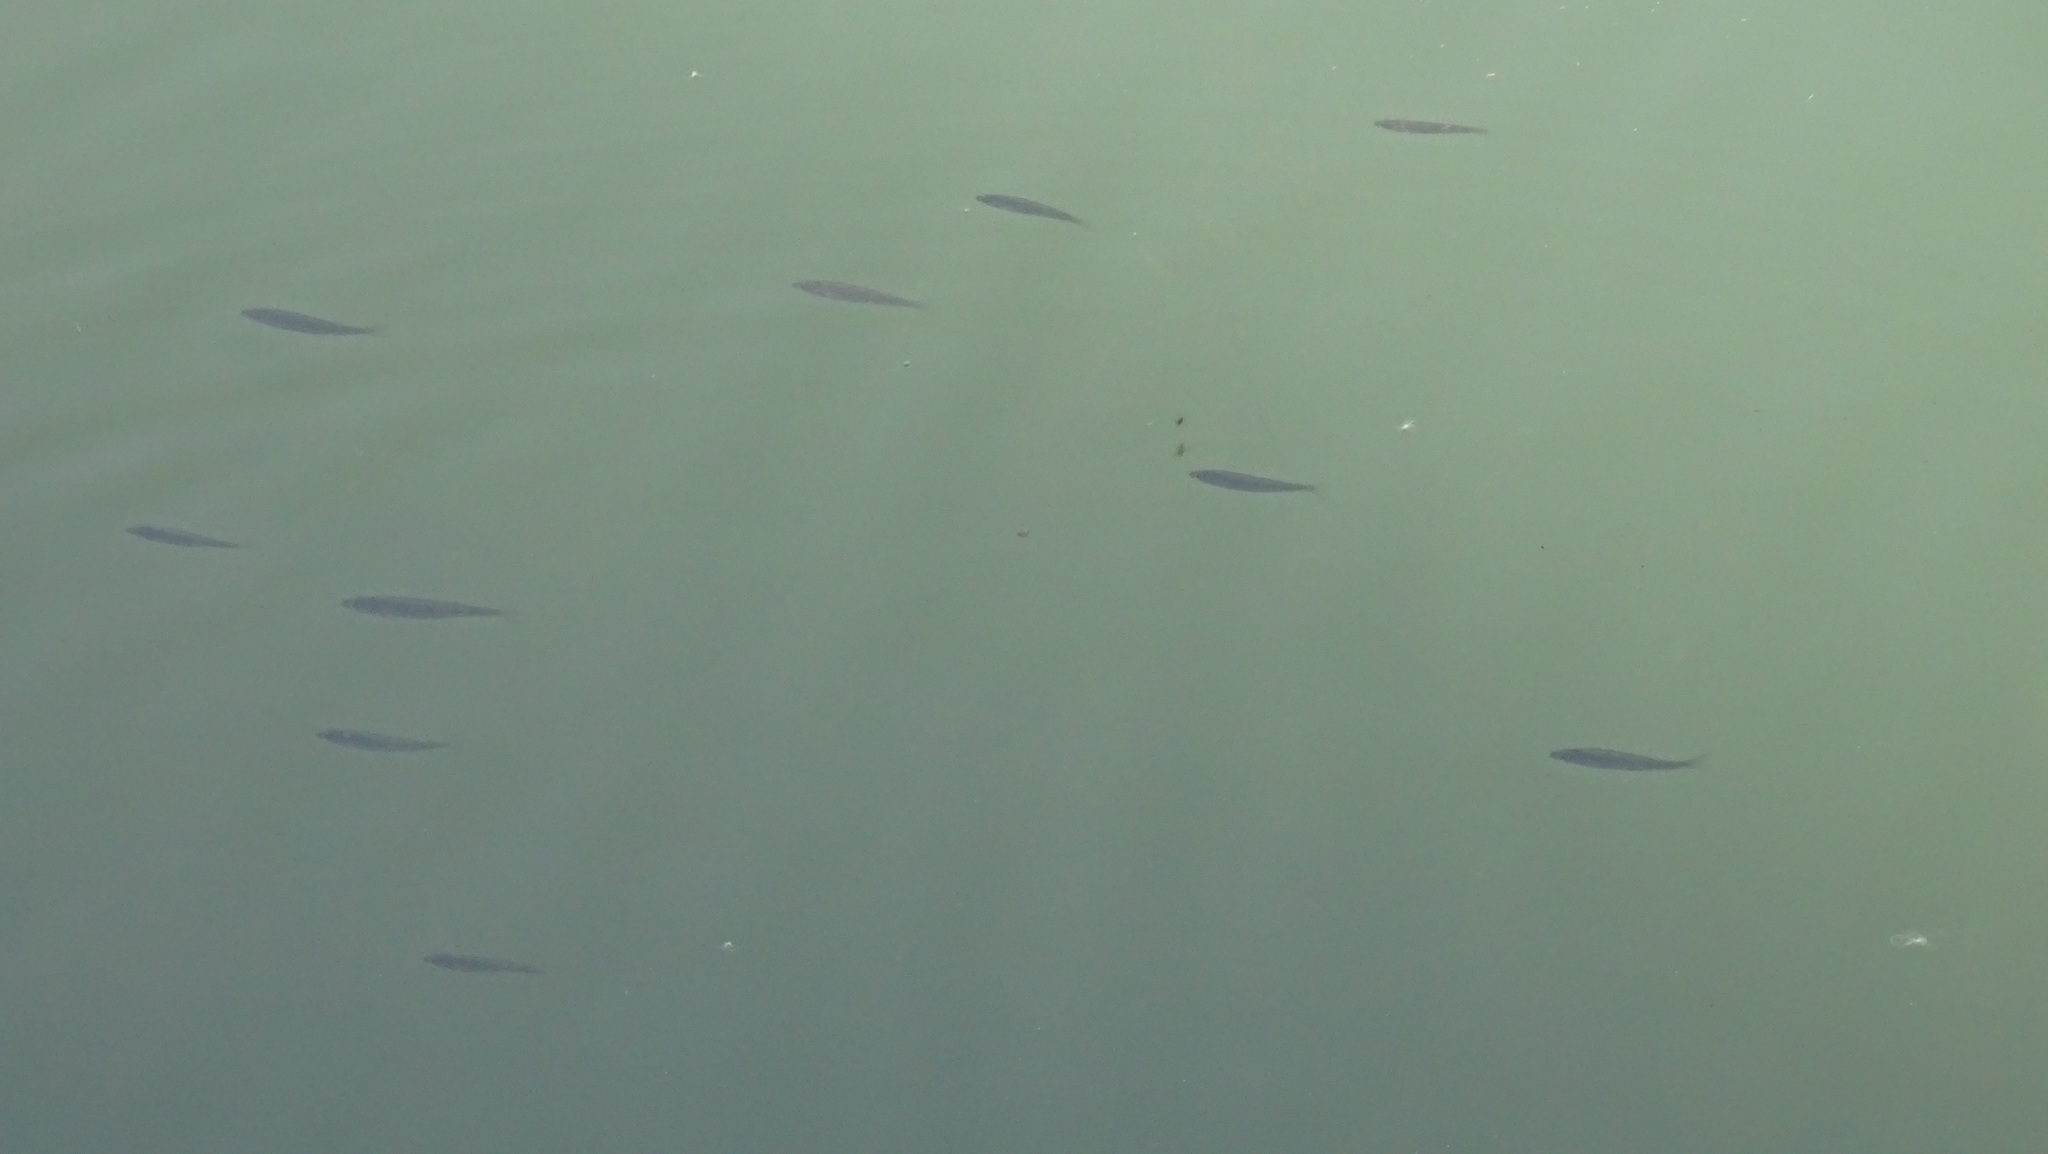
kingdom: Animalia
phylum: Chordata
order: Perciformes
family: Percidae
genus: Perca
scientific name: Perca fluviatilis
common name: Perch
